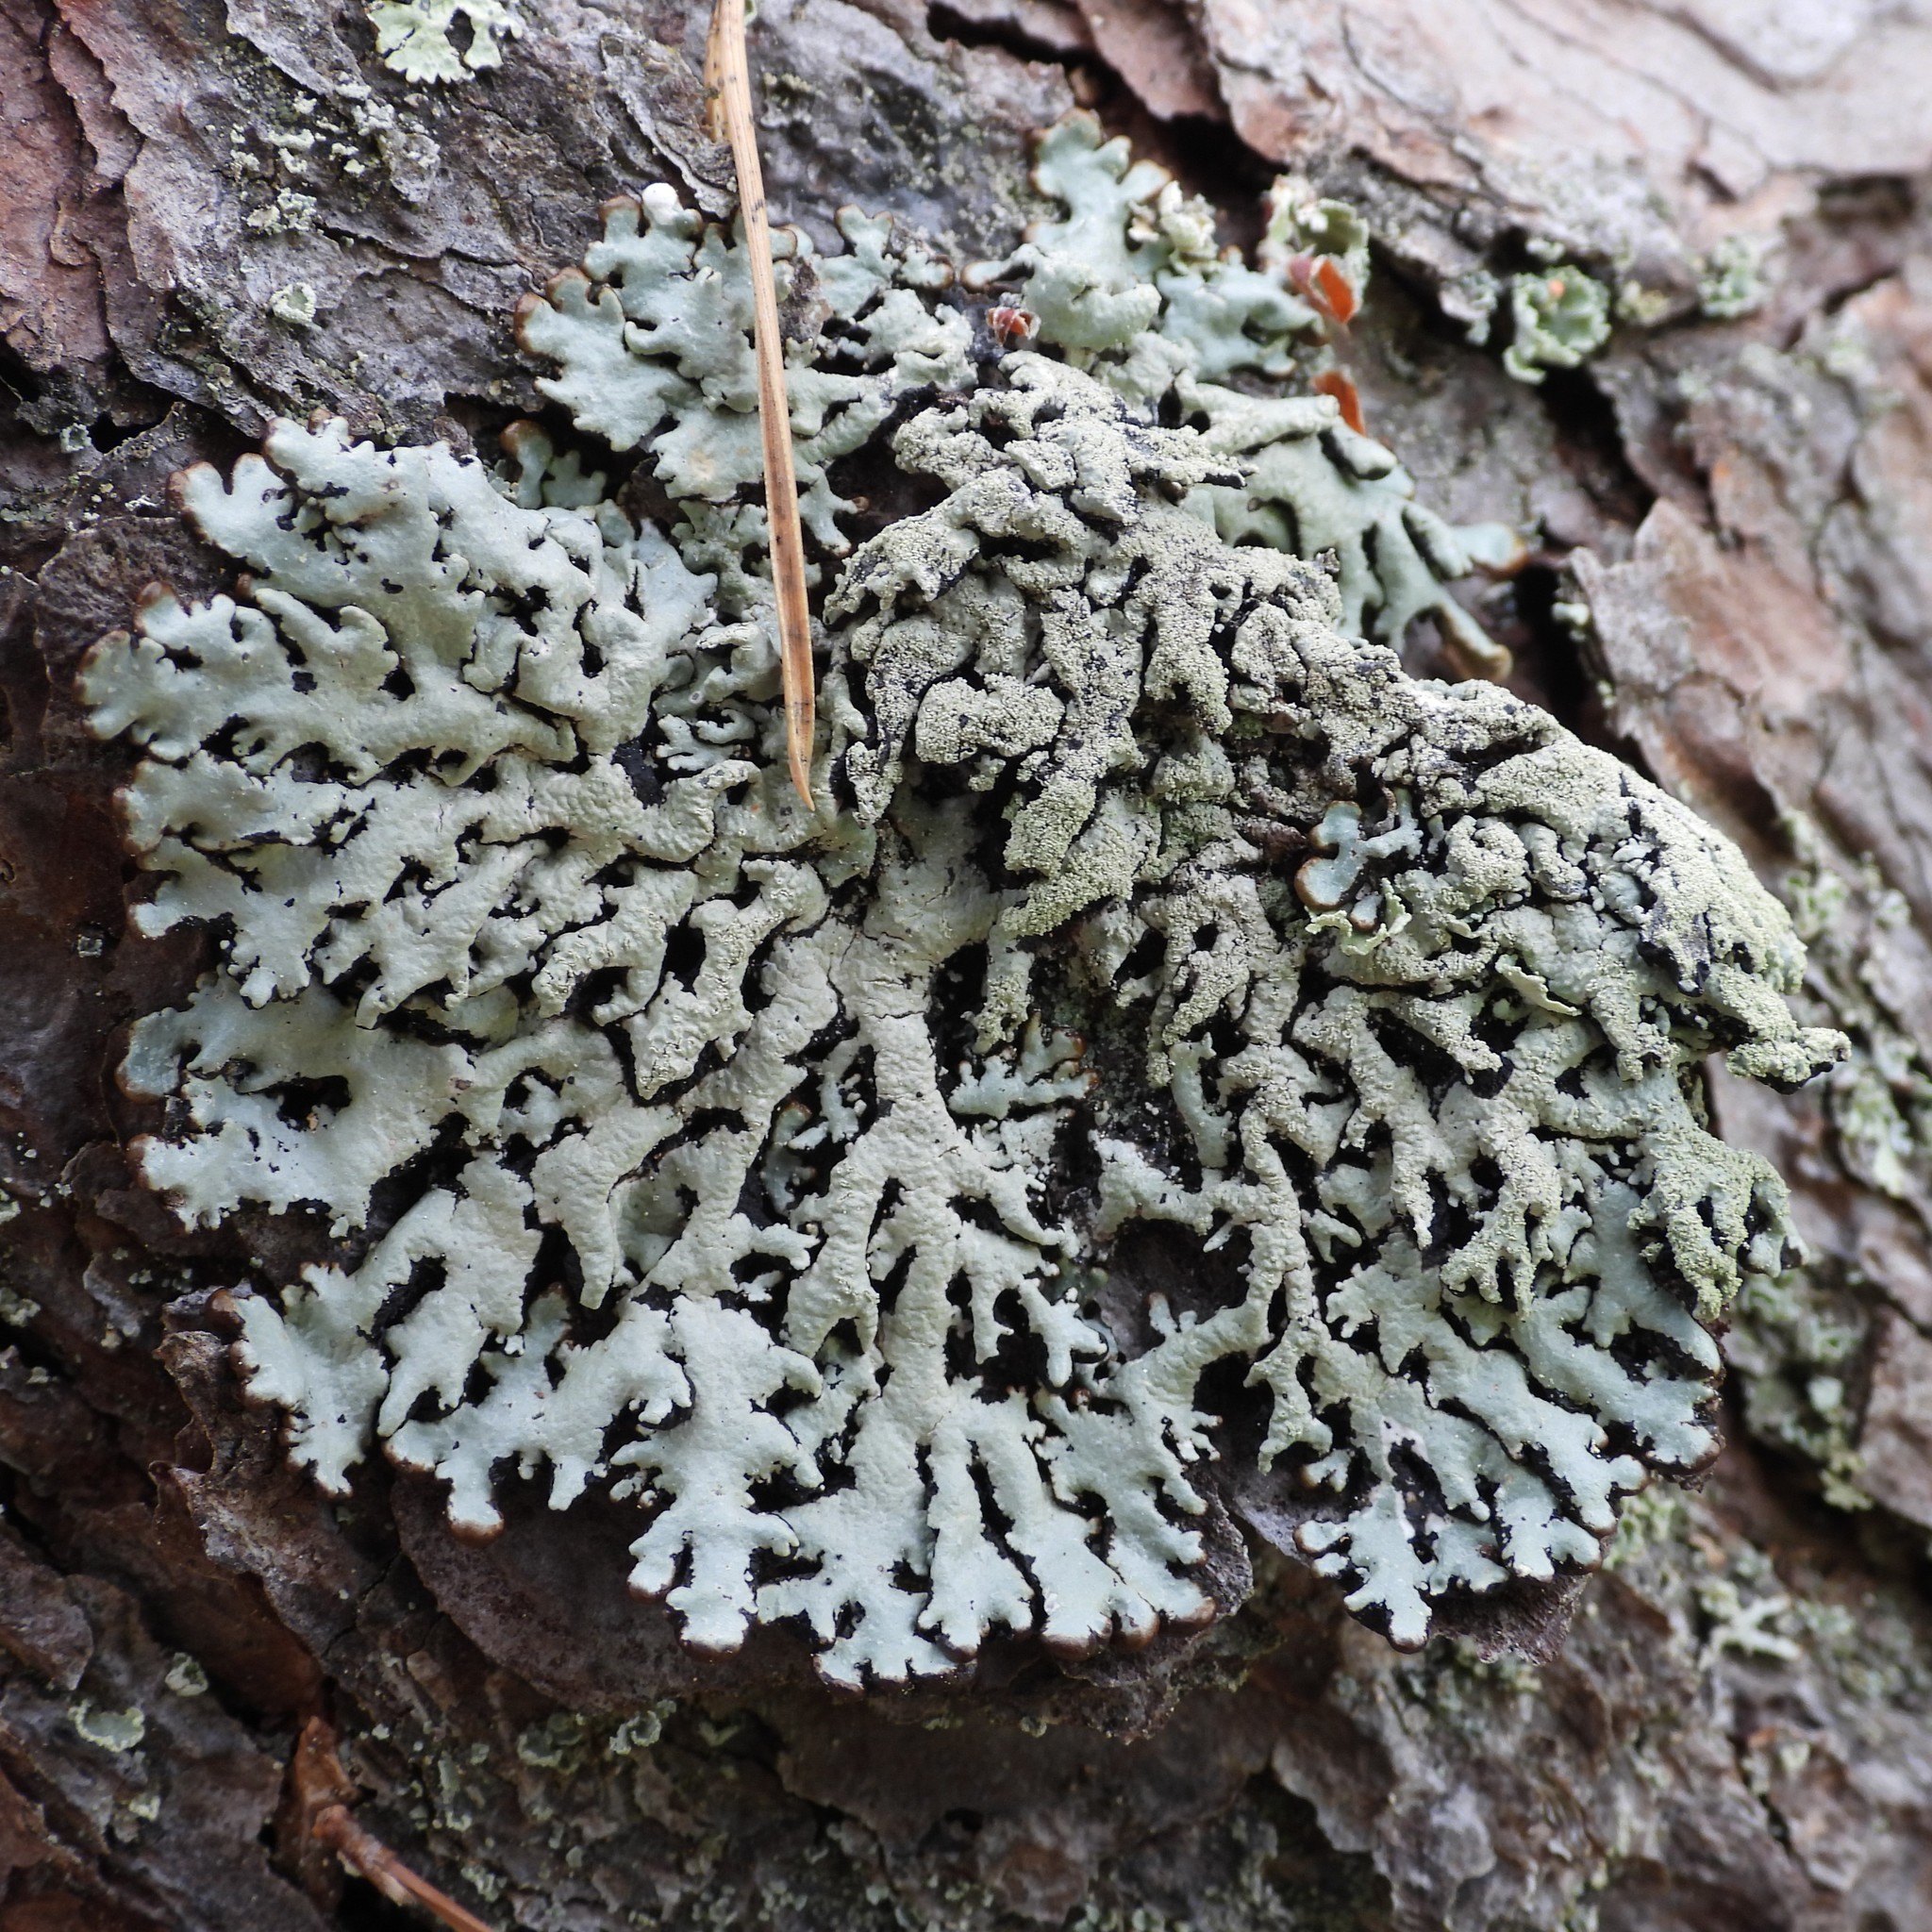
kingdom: Fungi
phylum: Ascomycota
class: Lecanoromycetes
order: Lecanorales
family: Parmeliaceae
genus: Hypogymnia
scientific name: Hypogymnia farinacea
